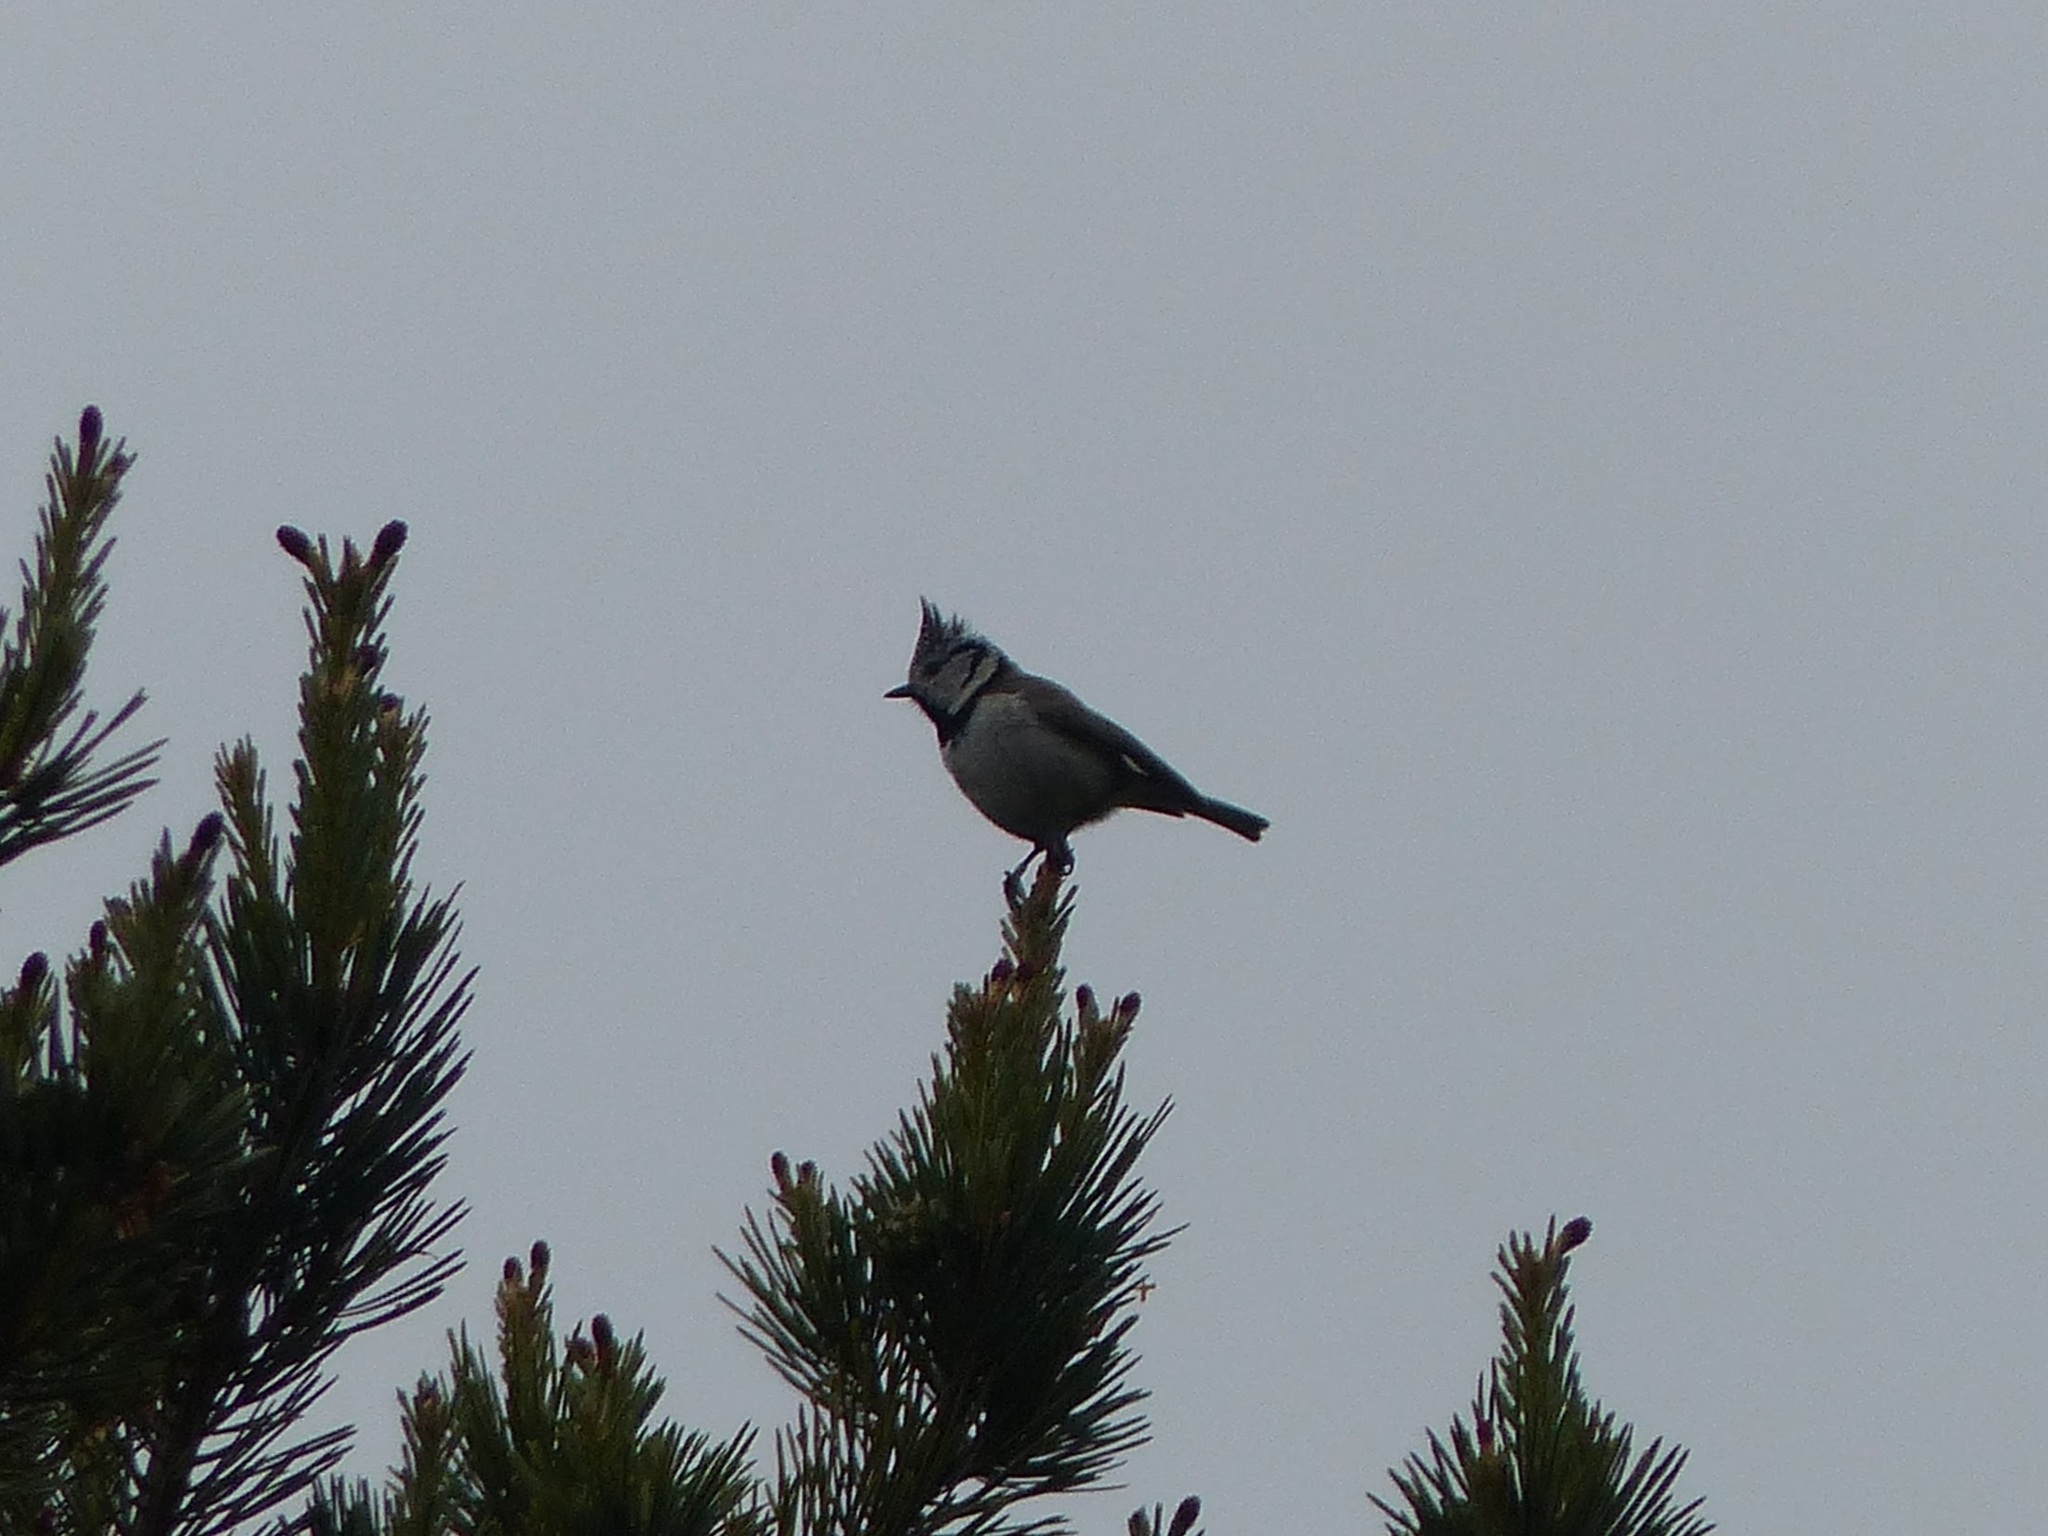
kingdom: Animalia
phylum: Chordata
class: Aves
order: Passeriformes
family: Paridae
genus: Lophophanes
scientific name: Lophophanes cristatus
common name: European crested tit
